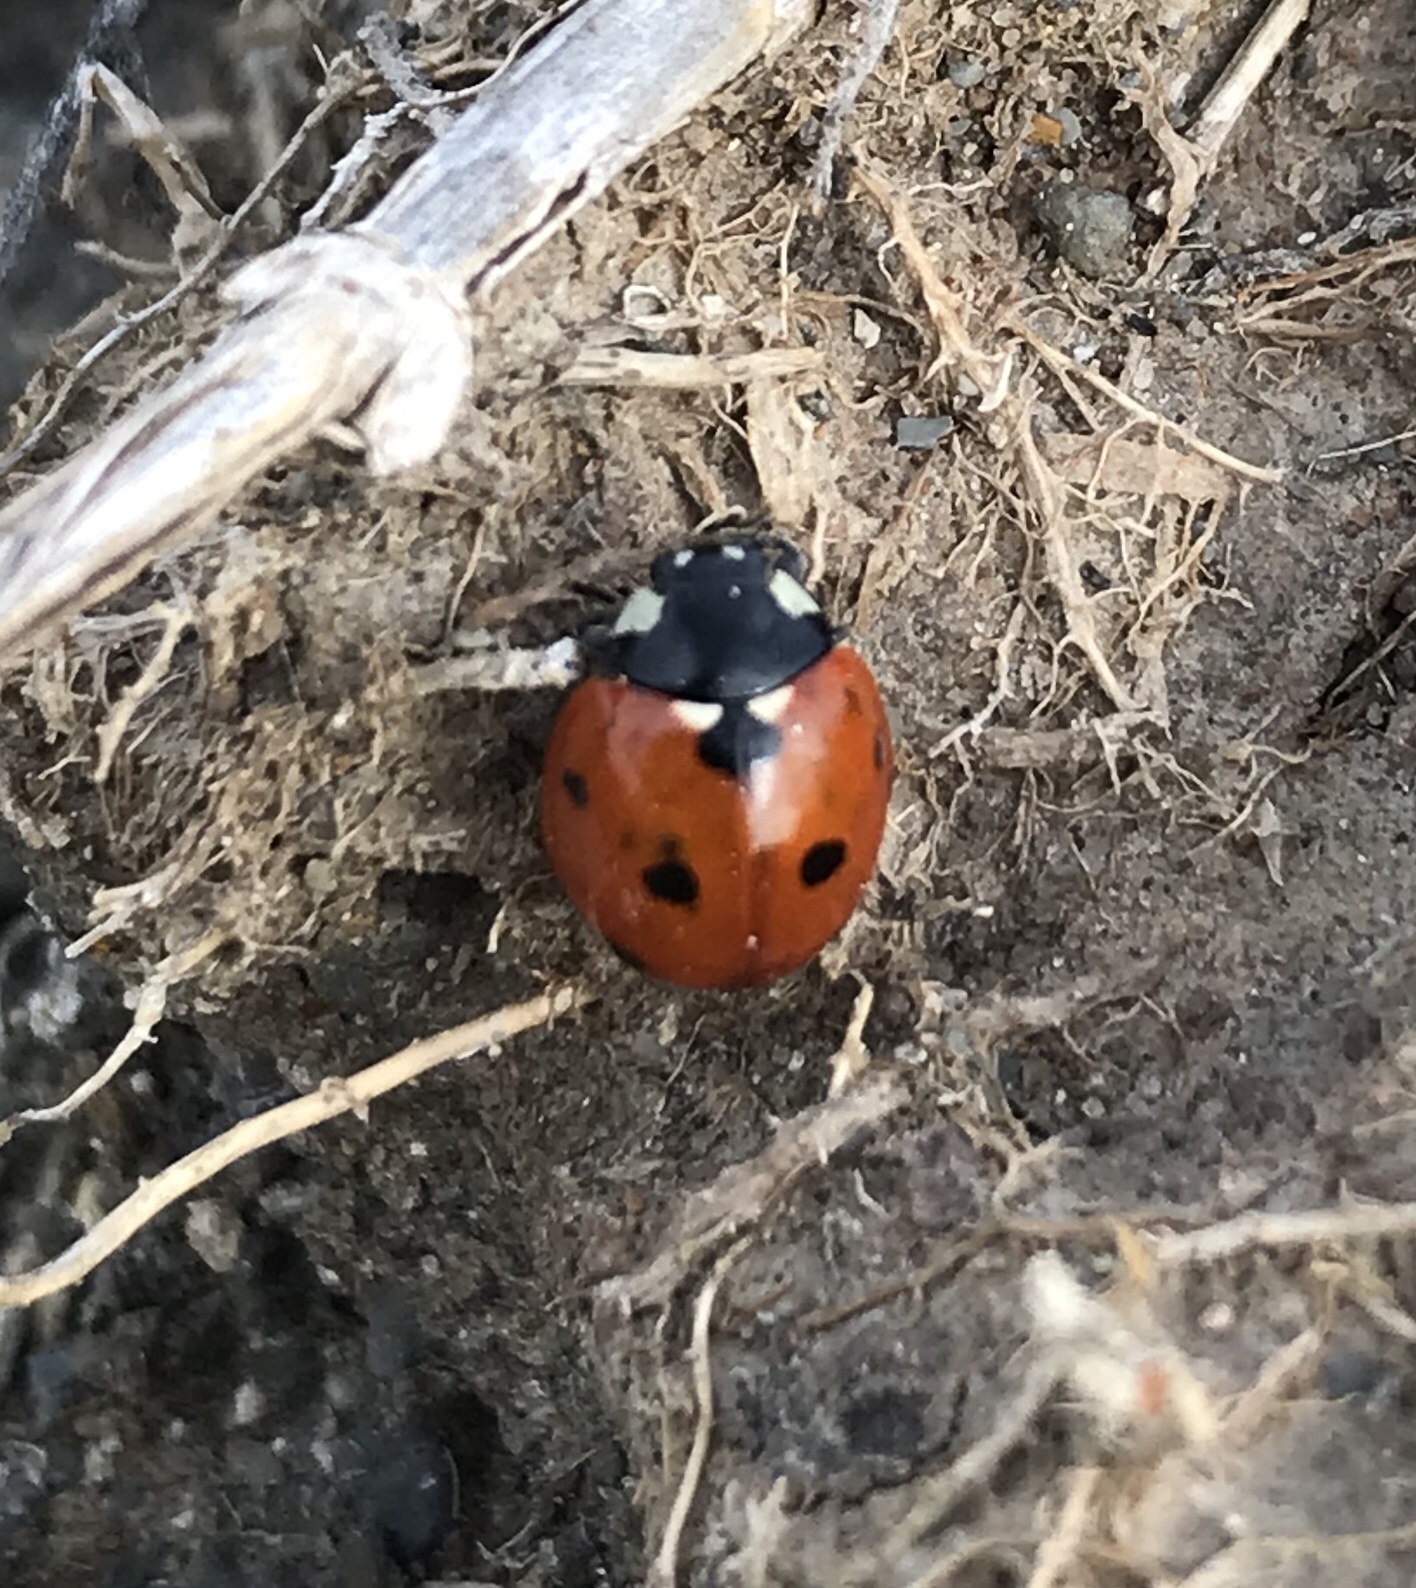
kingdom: Animalia
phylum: Arthropoda
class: Insecta
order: Coleoptera
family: Coccinellidae
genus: Coccinella
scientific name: Coccinella septempunctata
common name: Sevenspotted lady beetle
